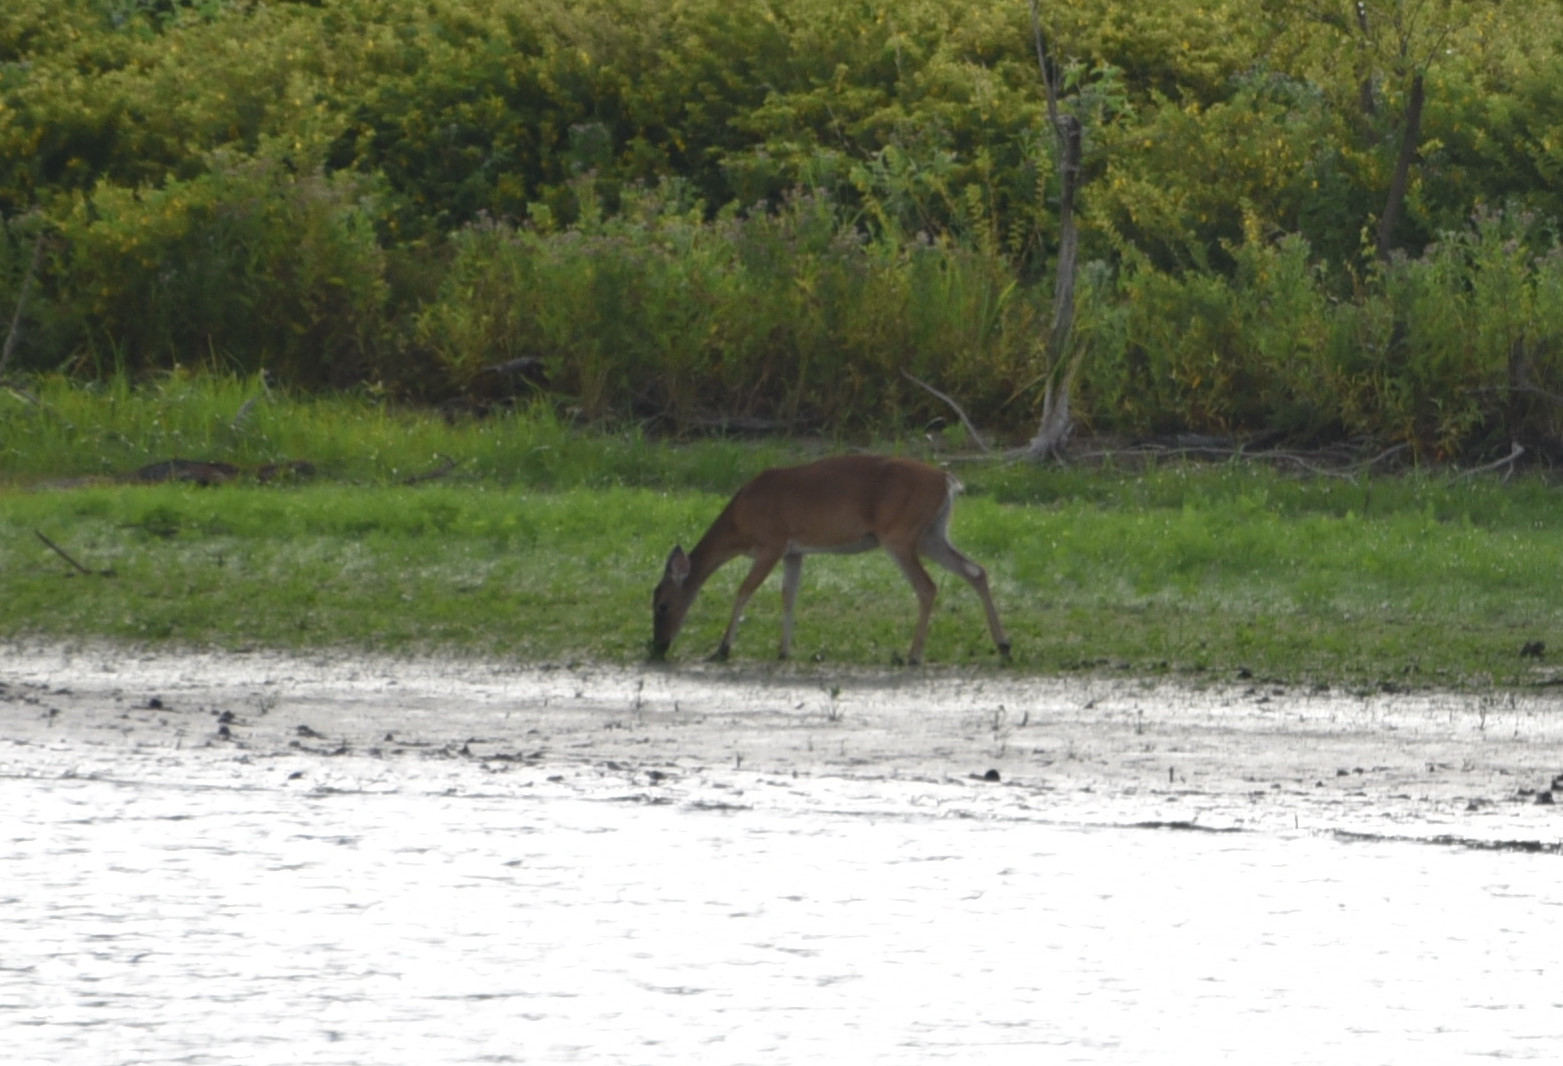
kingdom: Animalia
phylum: Chordata
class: Mammalia
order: Artiodactyla
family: Cervidae
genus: Odocoileus
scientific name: Odocoileus virginianus
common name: White-tailed deer
